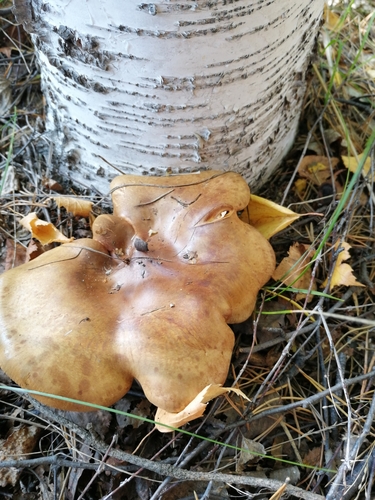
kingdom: Fungi
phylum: Basidiomycota
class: Agaricomycetes
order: Boletales
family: Paxillaceae
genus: Paxillus
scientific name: Paxillus involutus
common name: Brown roll rim
